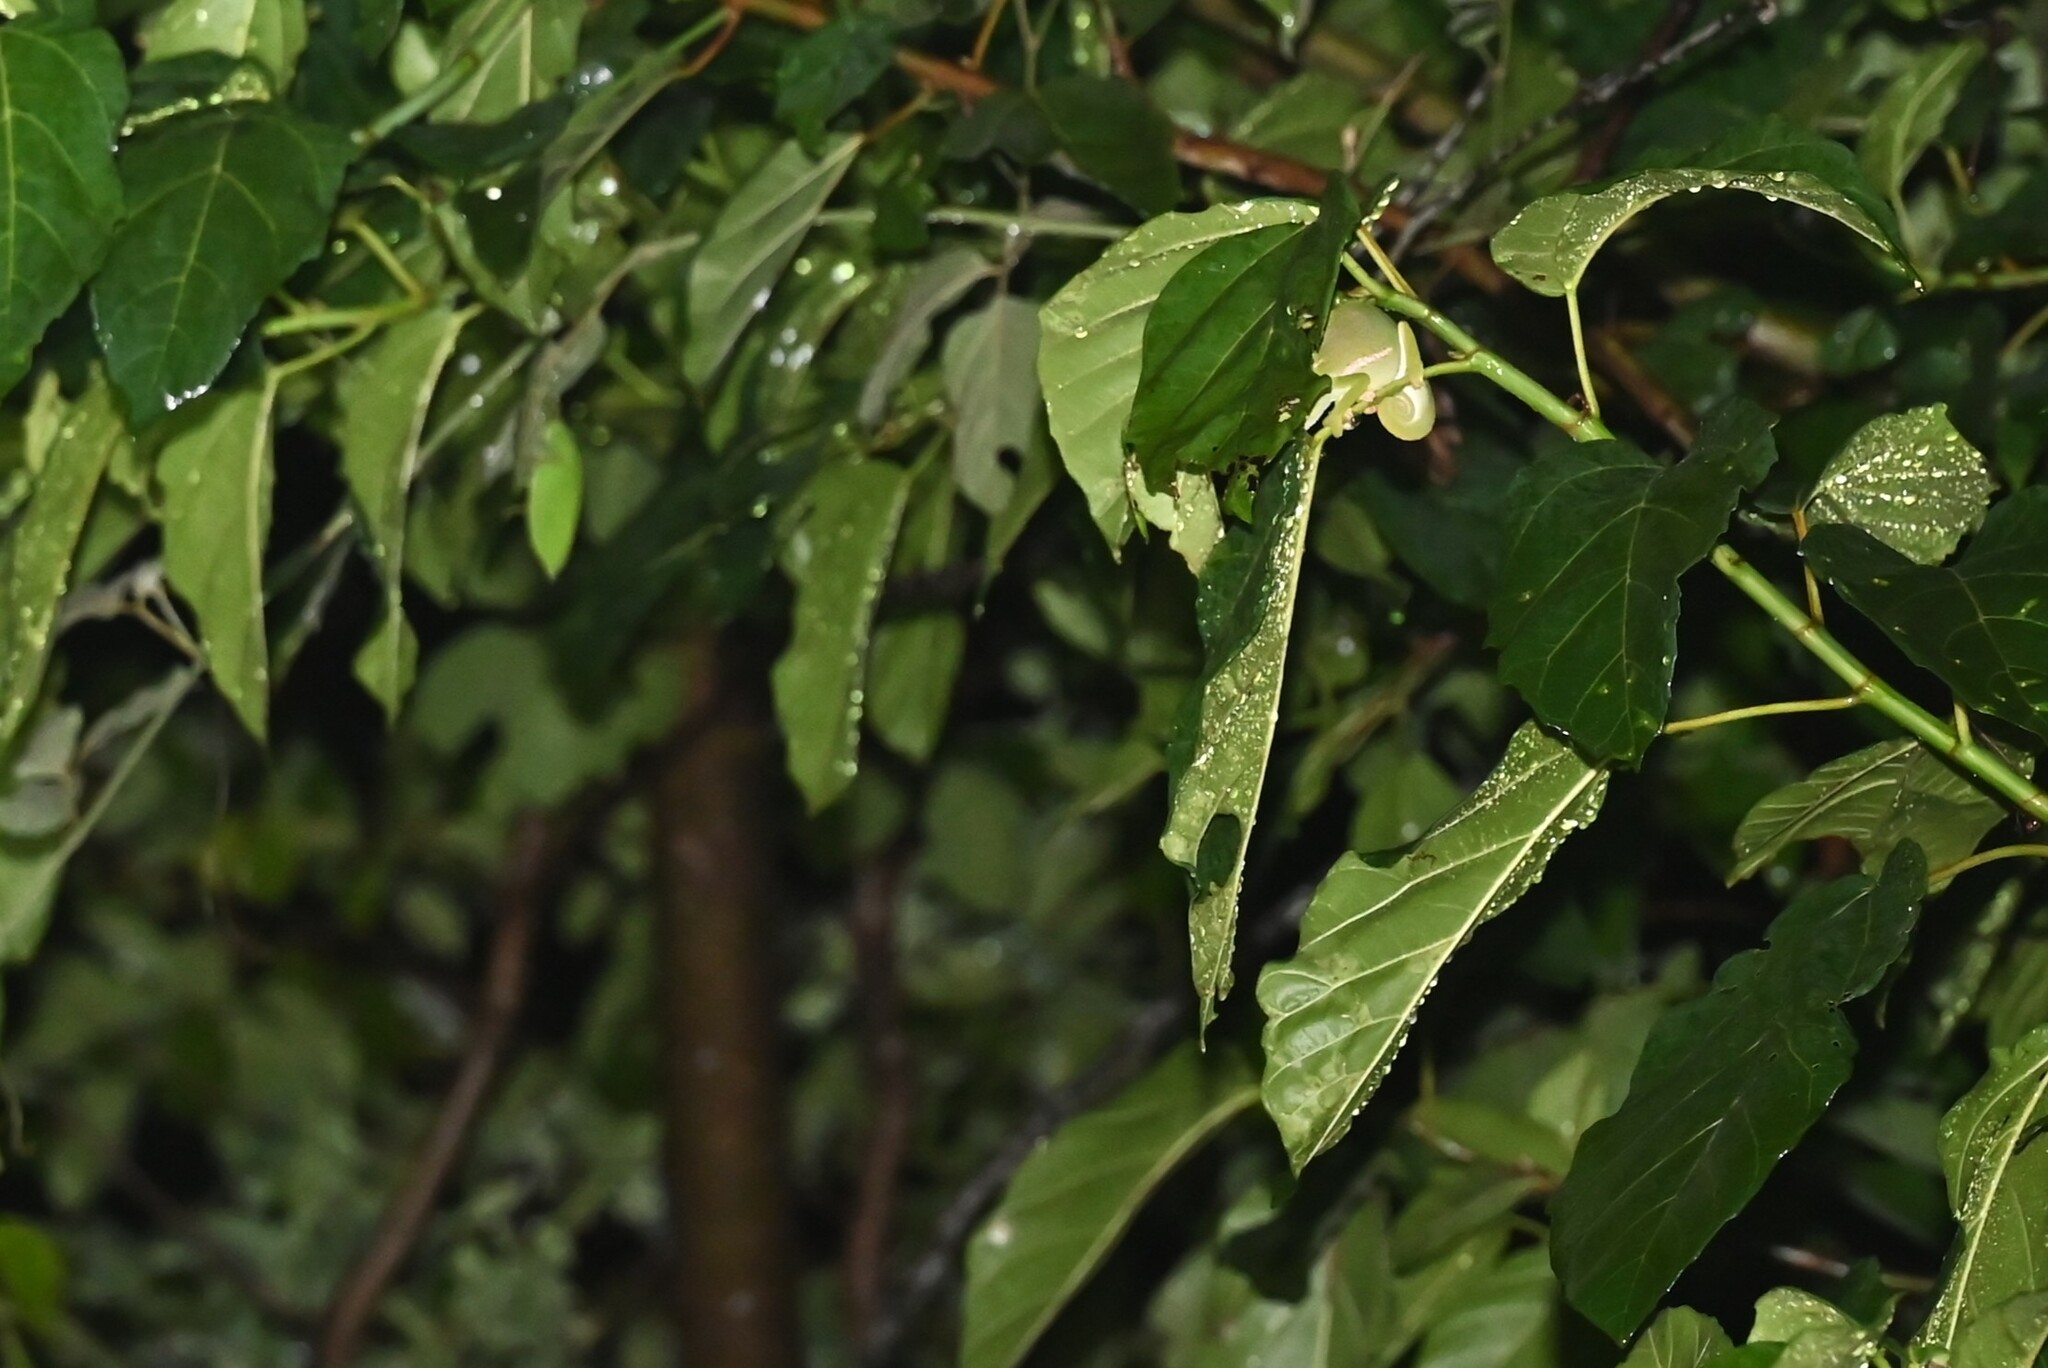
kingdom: Animalia
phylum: Chordata
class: Squamata
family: Chamaeleonidae
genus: Chamaeleo
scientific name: Chamaeleo dilepis
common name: Flapneck chameleon
